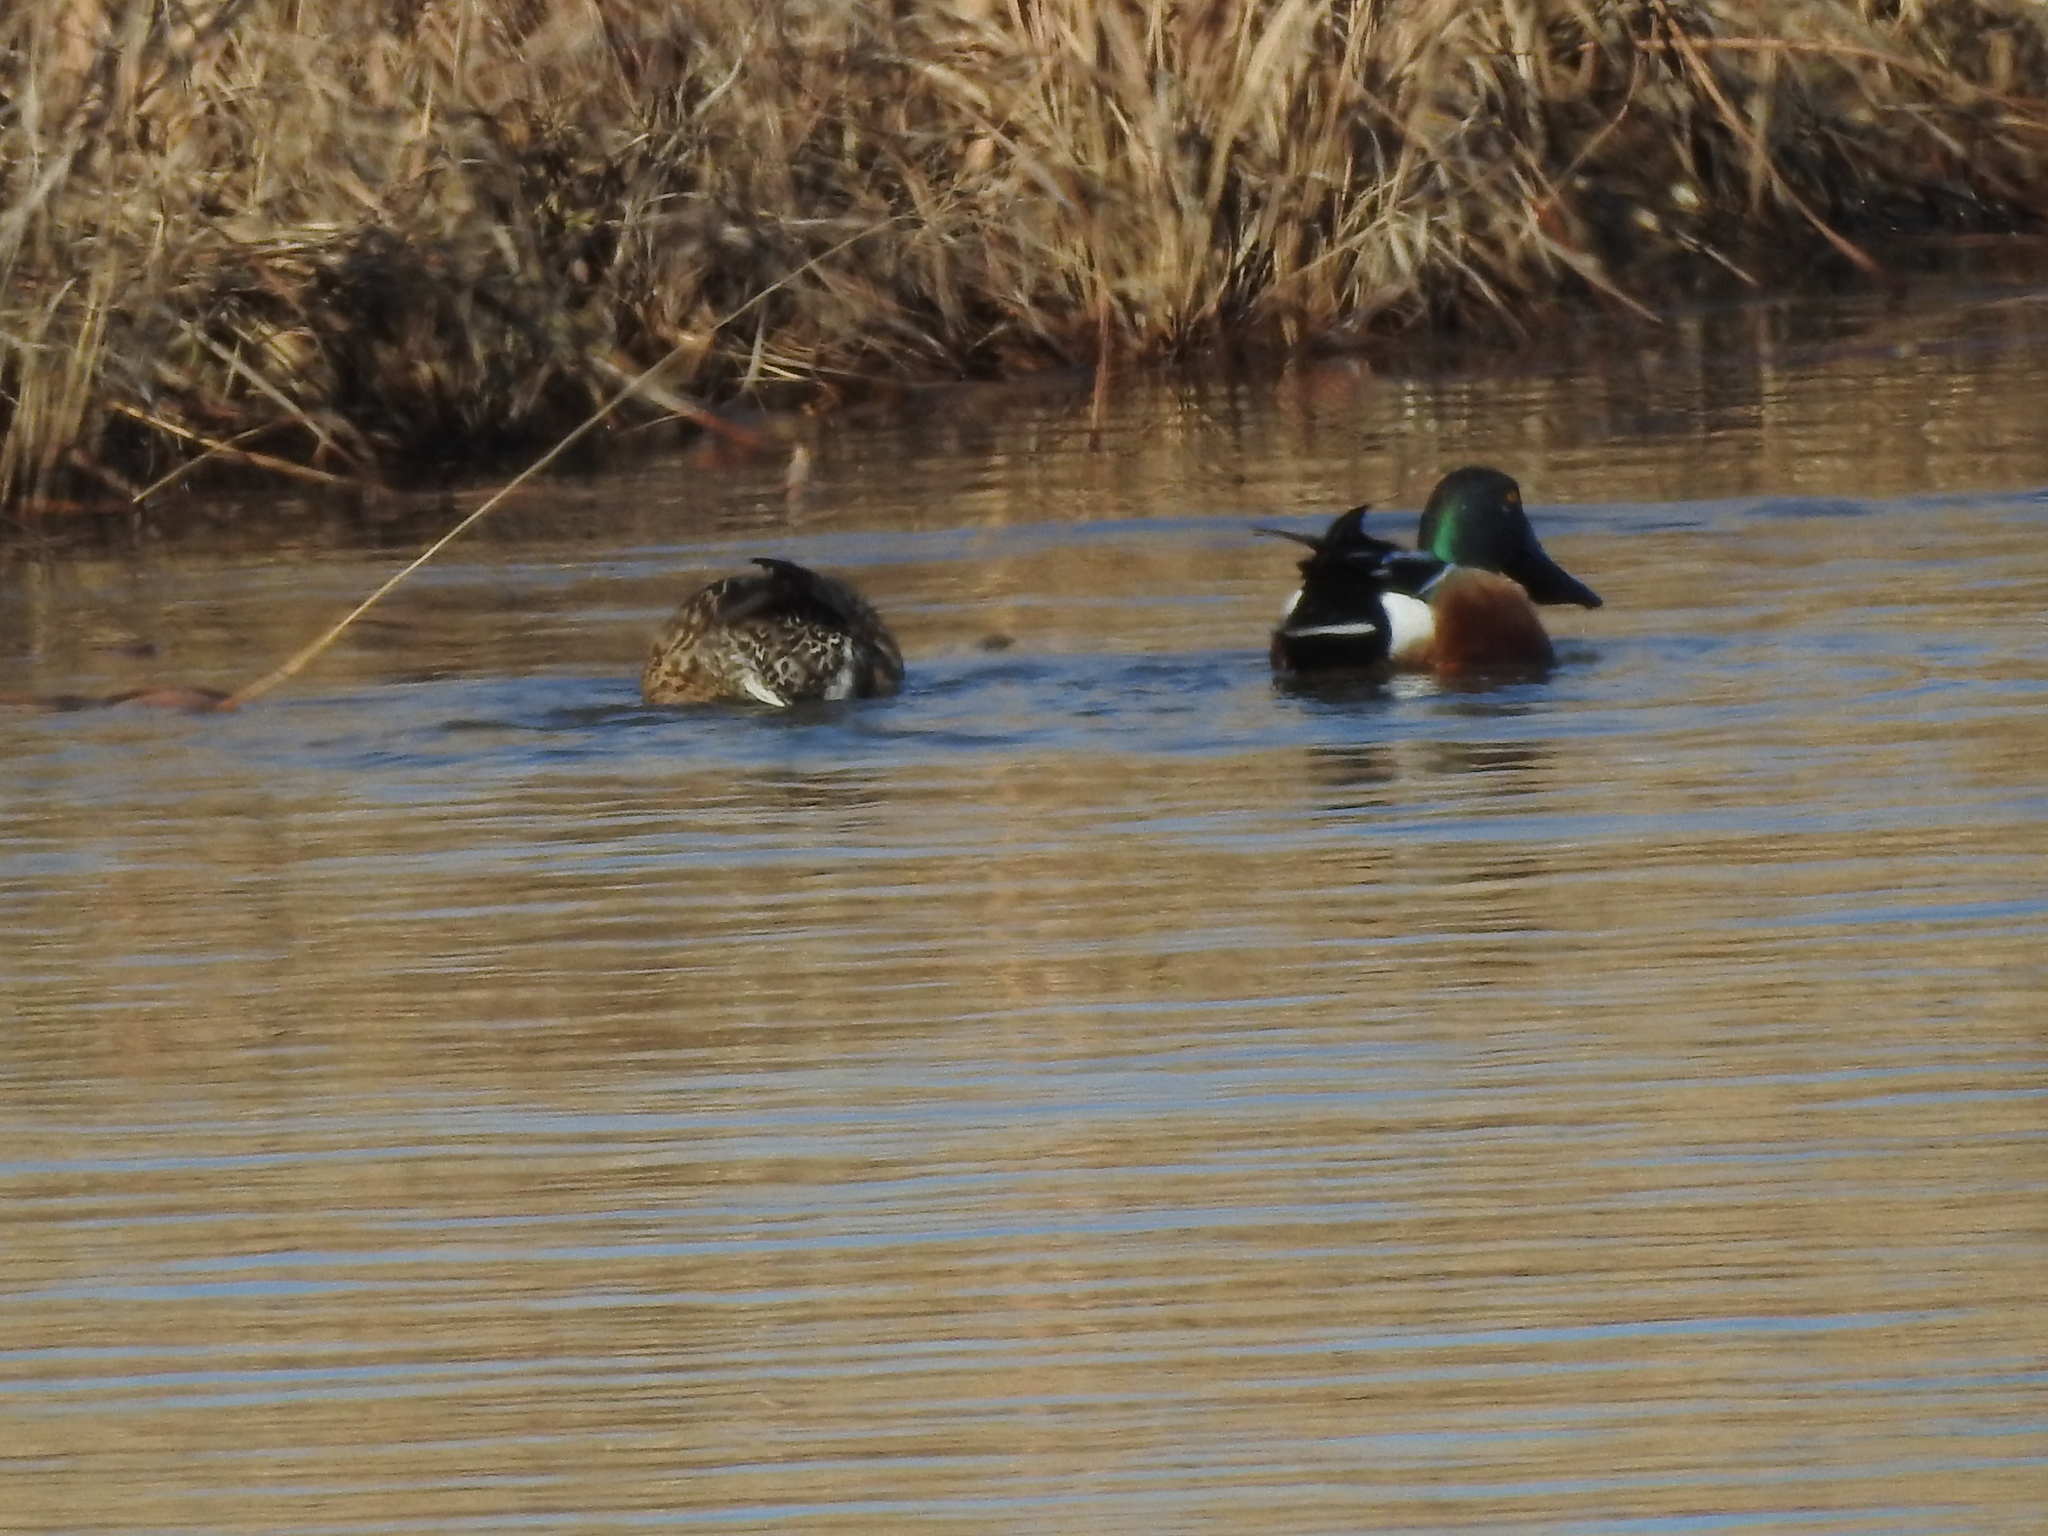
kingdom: Animalia
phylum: Chordata
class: Aves
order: Anseriformes
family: Anatidae
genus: Spatula
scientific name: Spatula clypeata
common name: Northern shoveler
